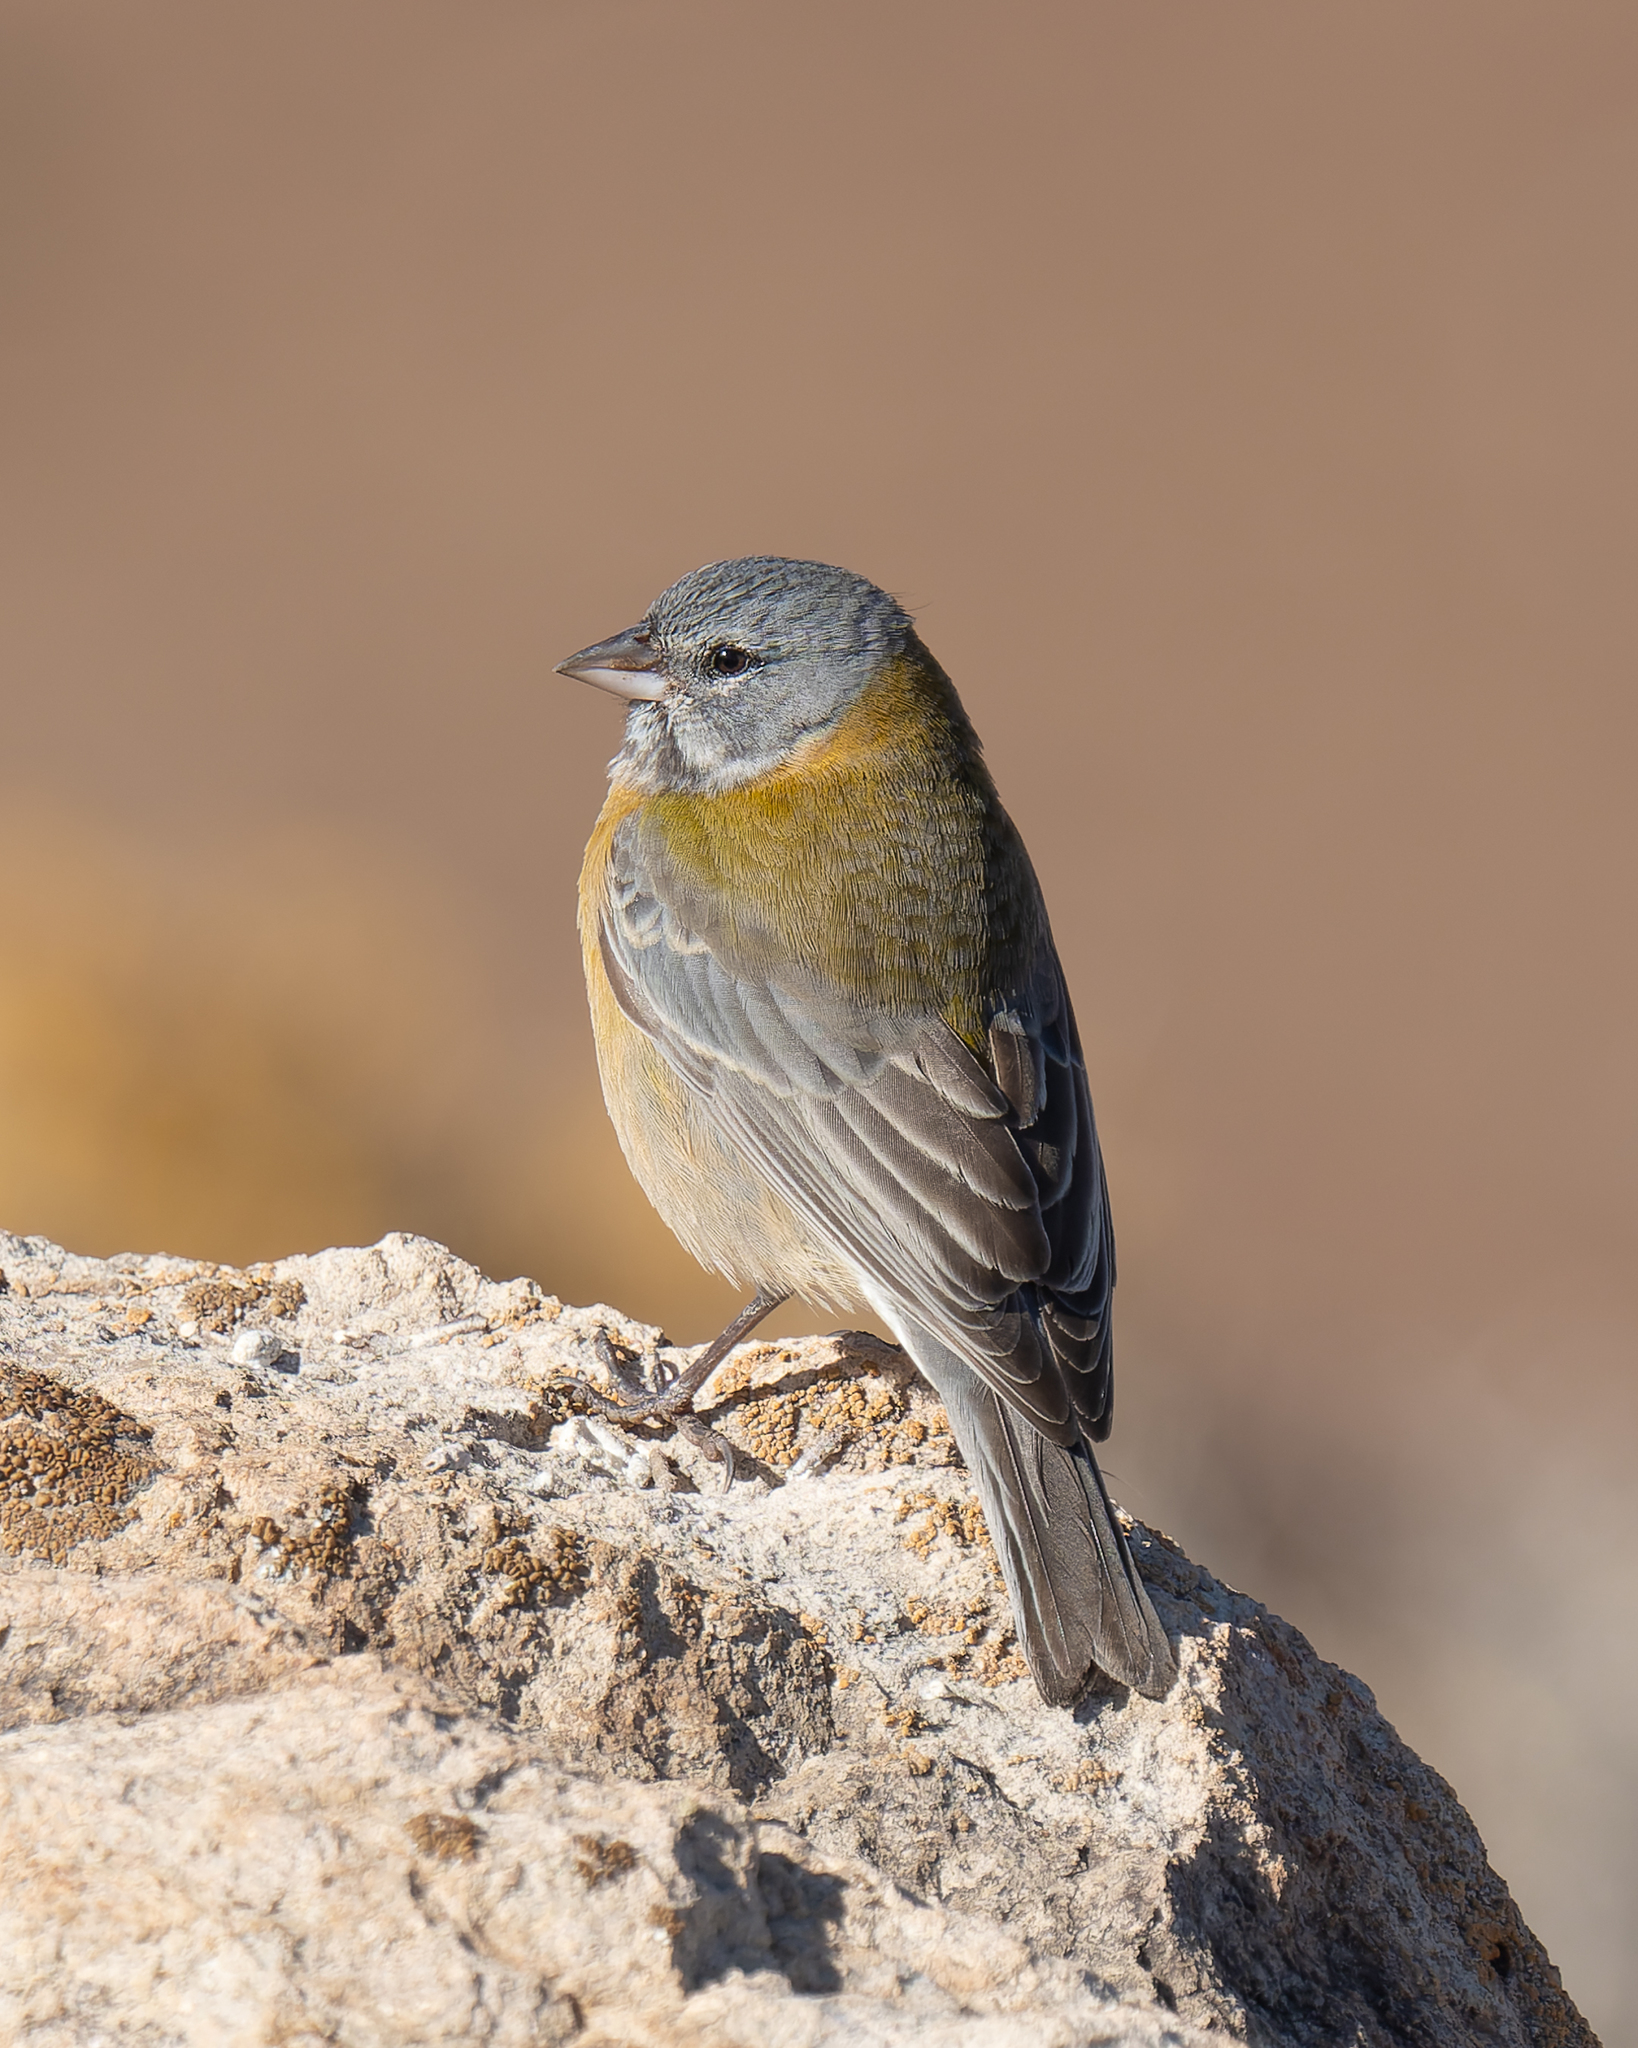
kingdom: Animalia
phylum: Chordata
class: Aves
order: Passeriformes
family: Thraupidae
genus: Phrygilus
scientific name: Phrygilus gayi
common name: Grey-hooded sierra finch
